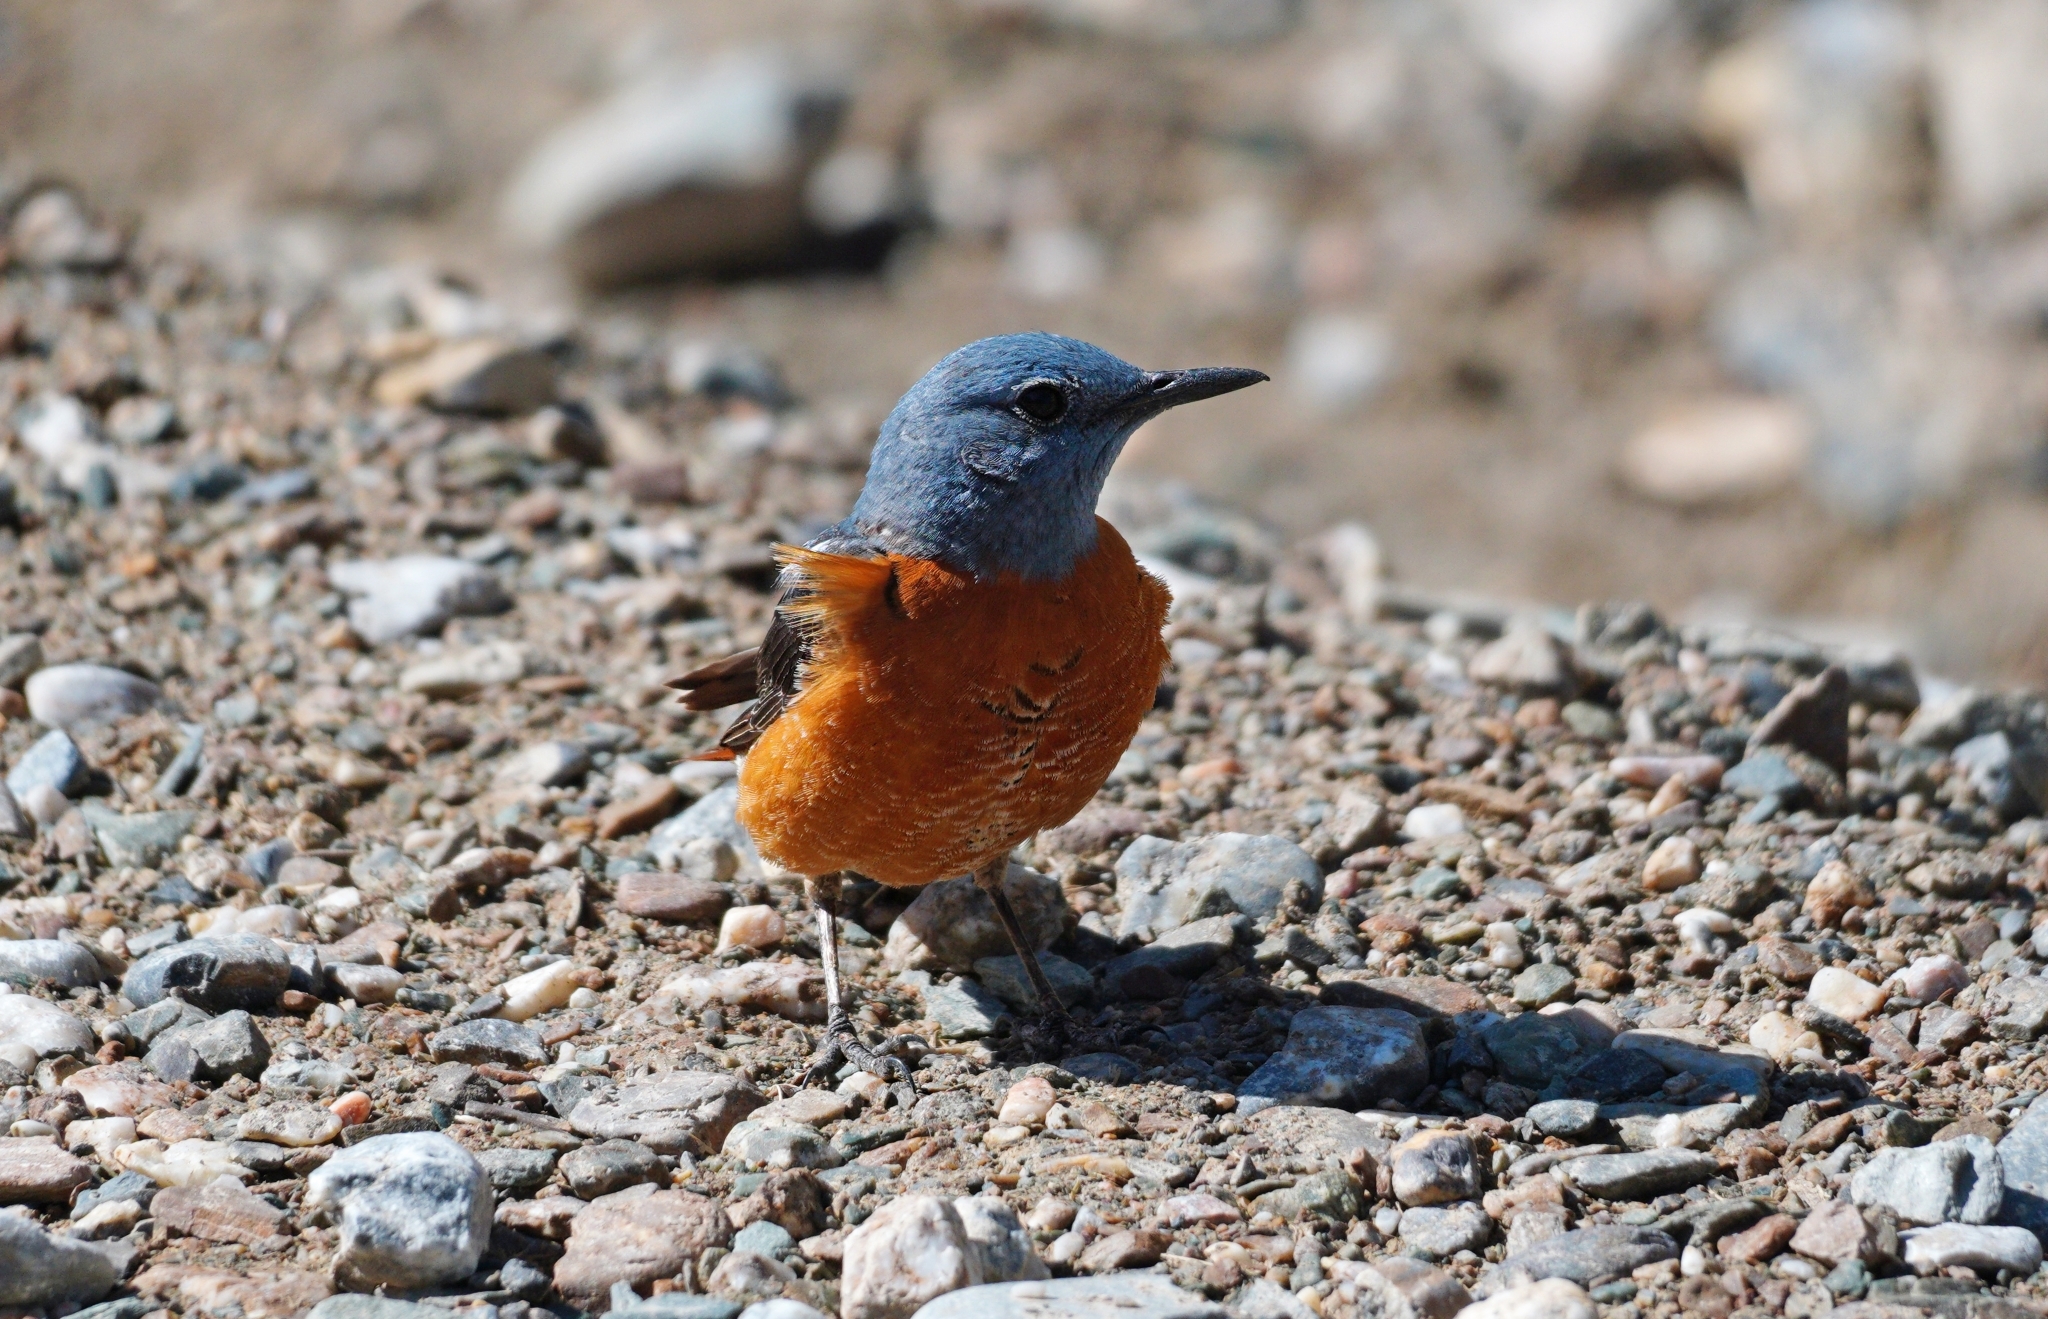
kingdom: Animalia
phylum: Chordata
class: Aves
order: Passeriformes
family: Muscicapidae
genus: Monticola
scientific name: Monticola saxatilis
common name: Rufous-tailed rock thrush
